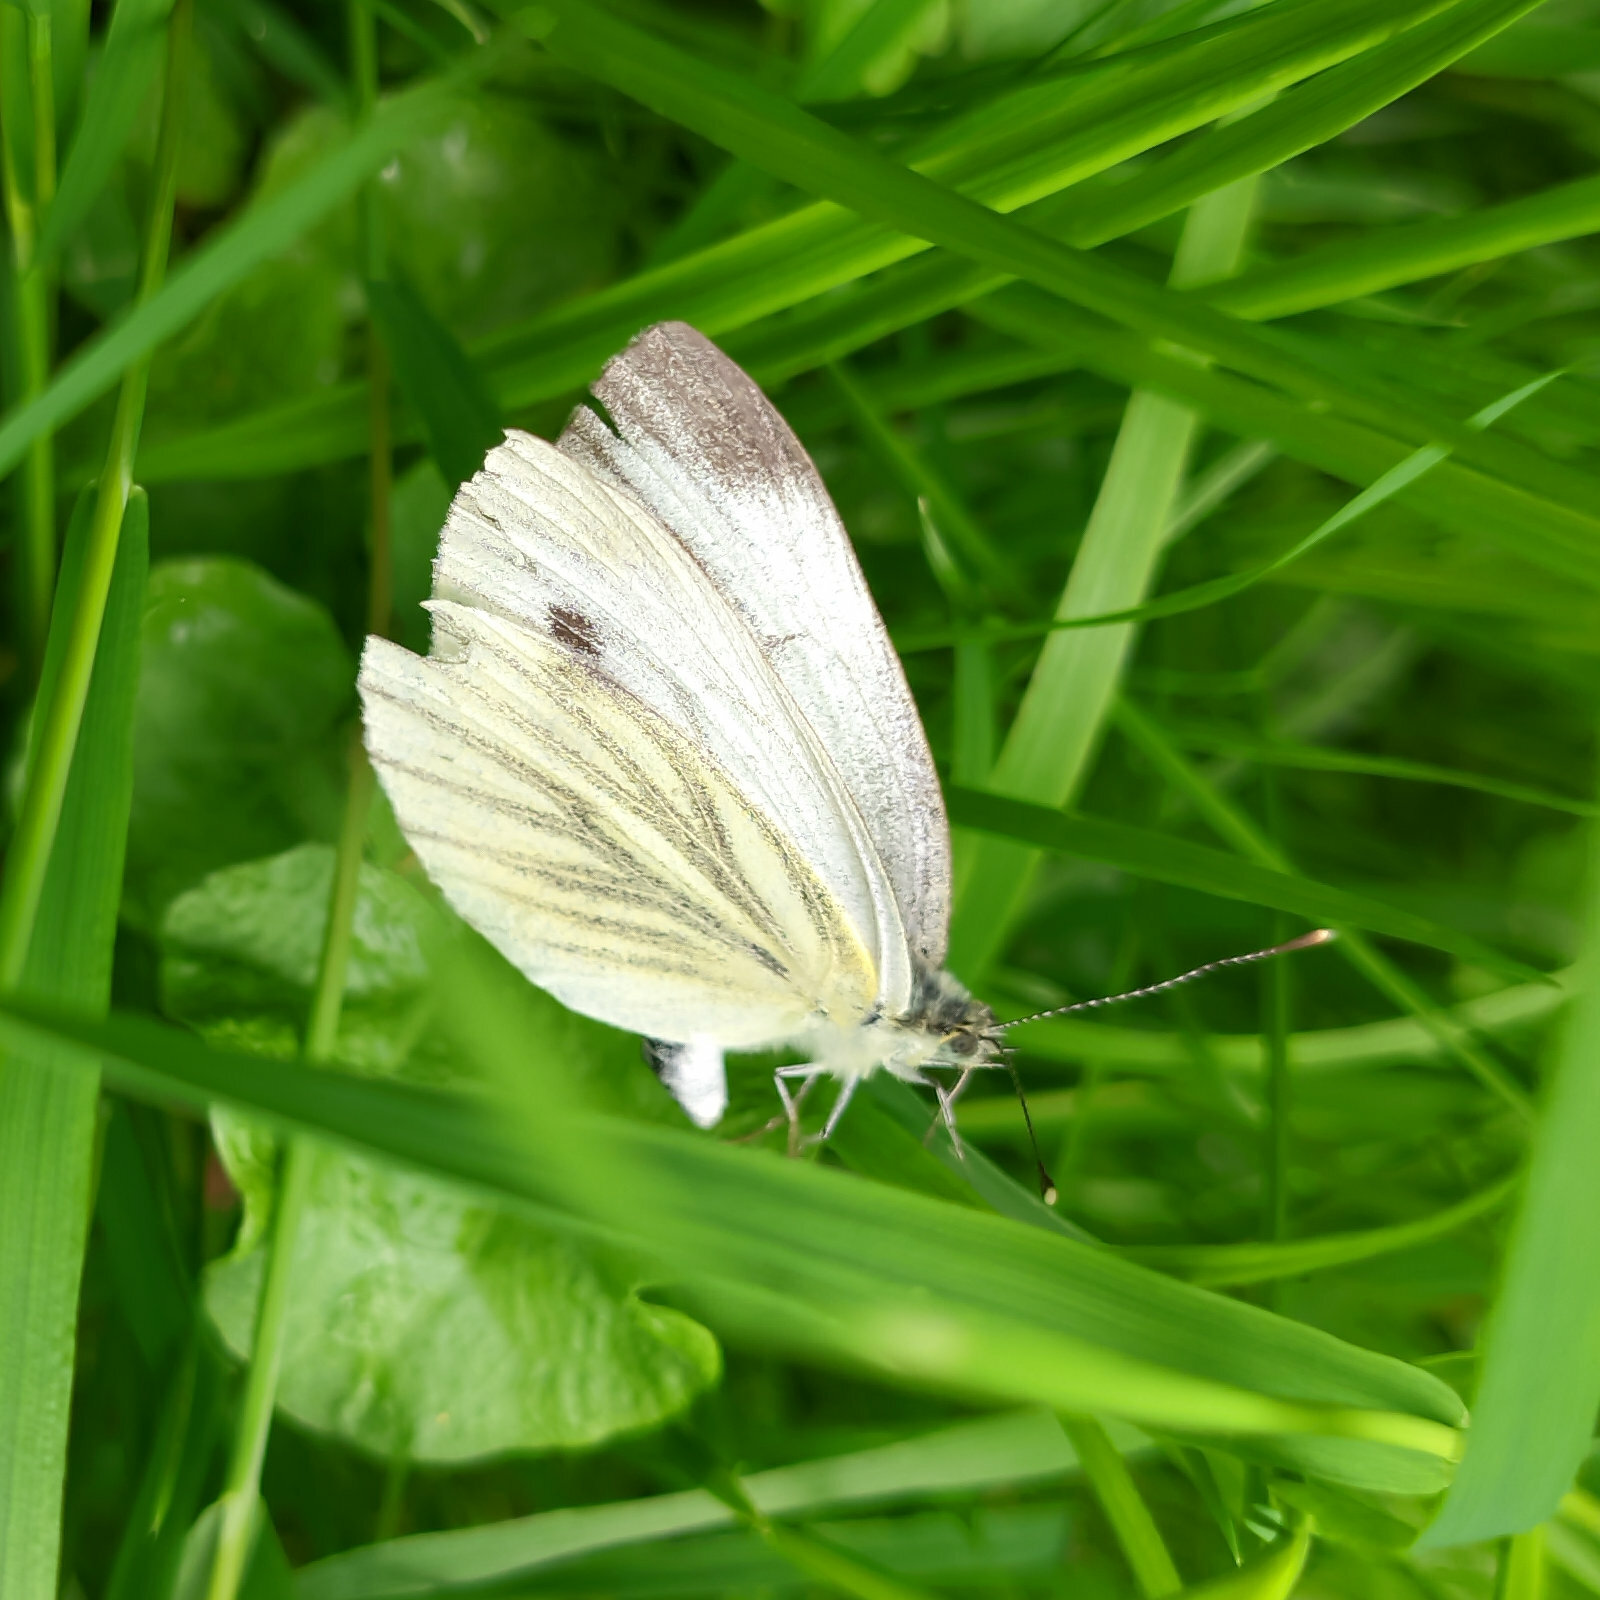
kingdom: Animalia
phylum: Arthropoda
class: Insecta
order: Lepidoptera
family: Pieridae
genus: Pieris
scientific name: Pieris napi
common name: Green-veined white
